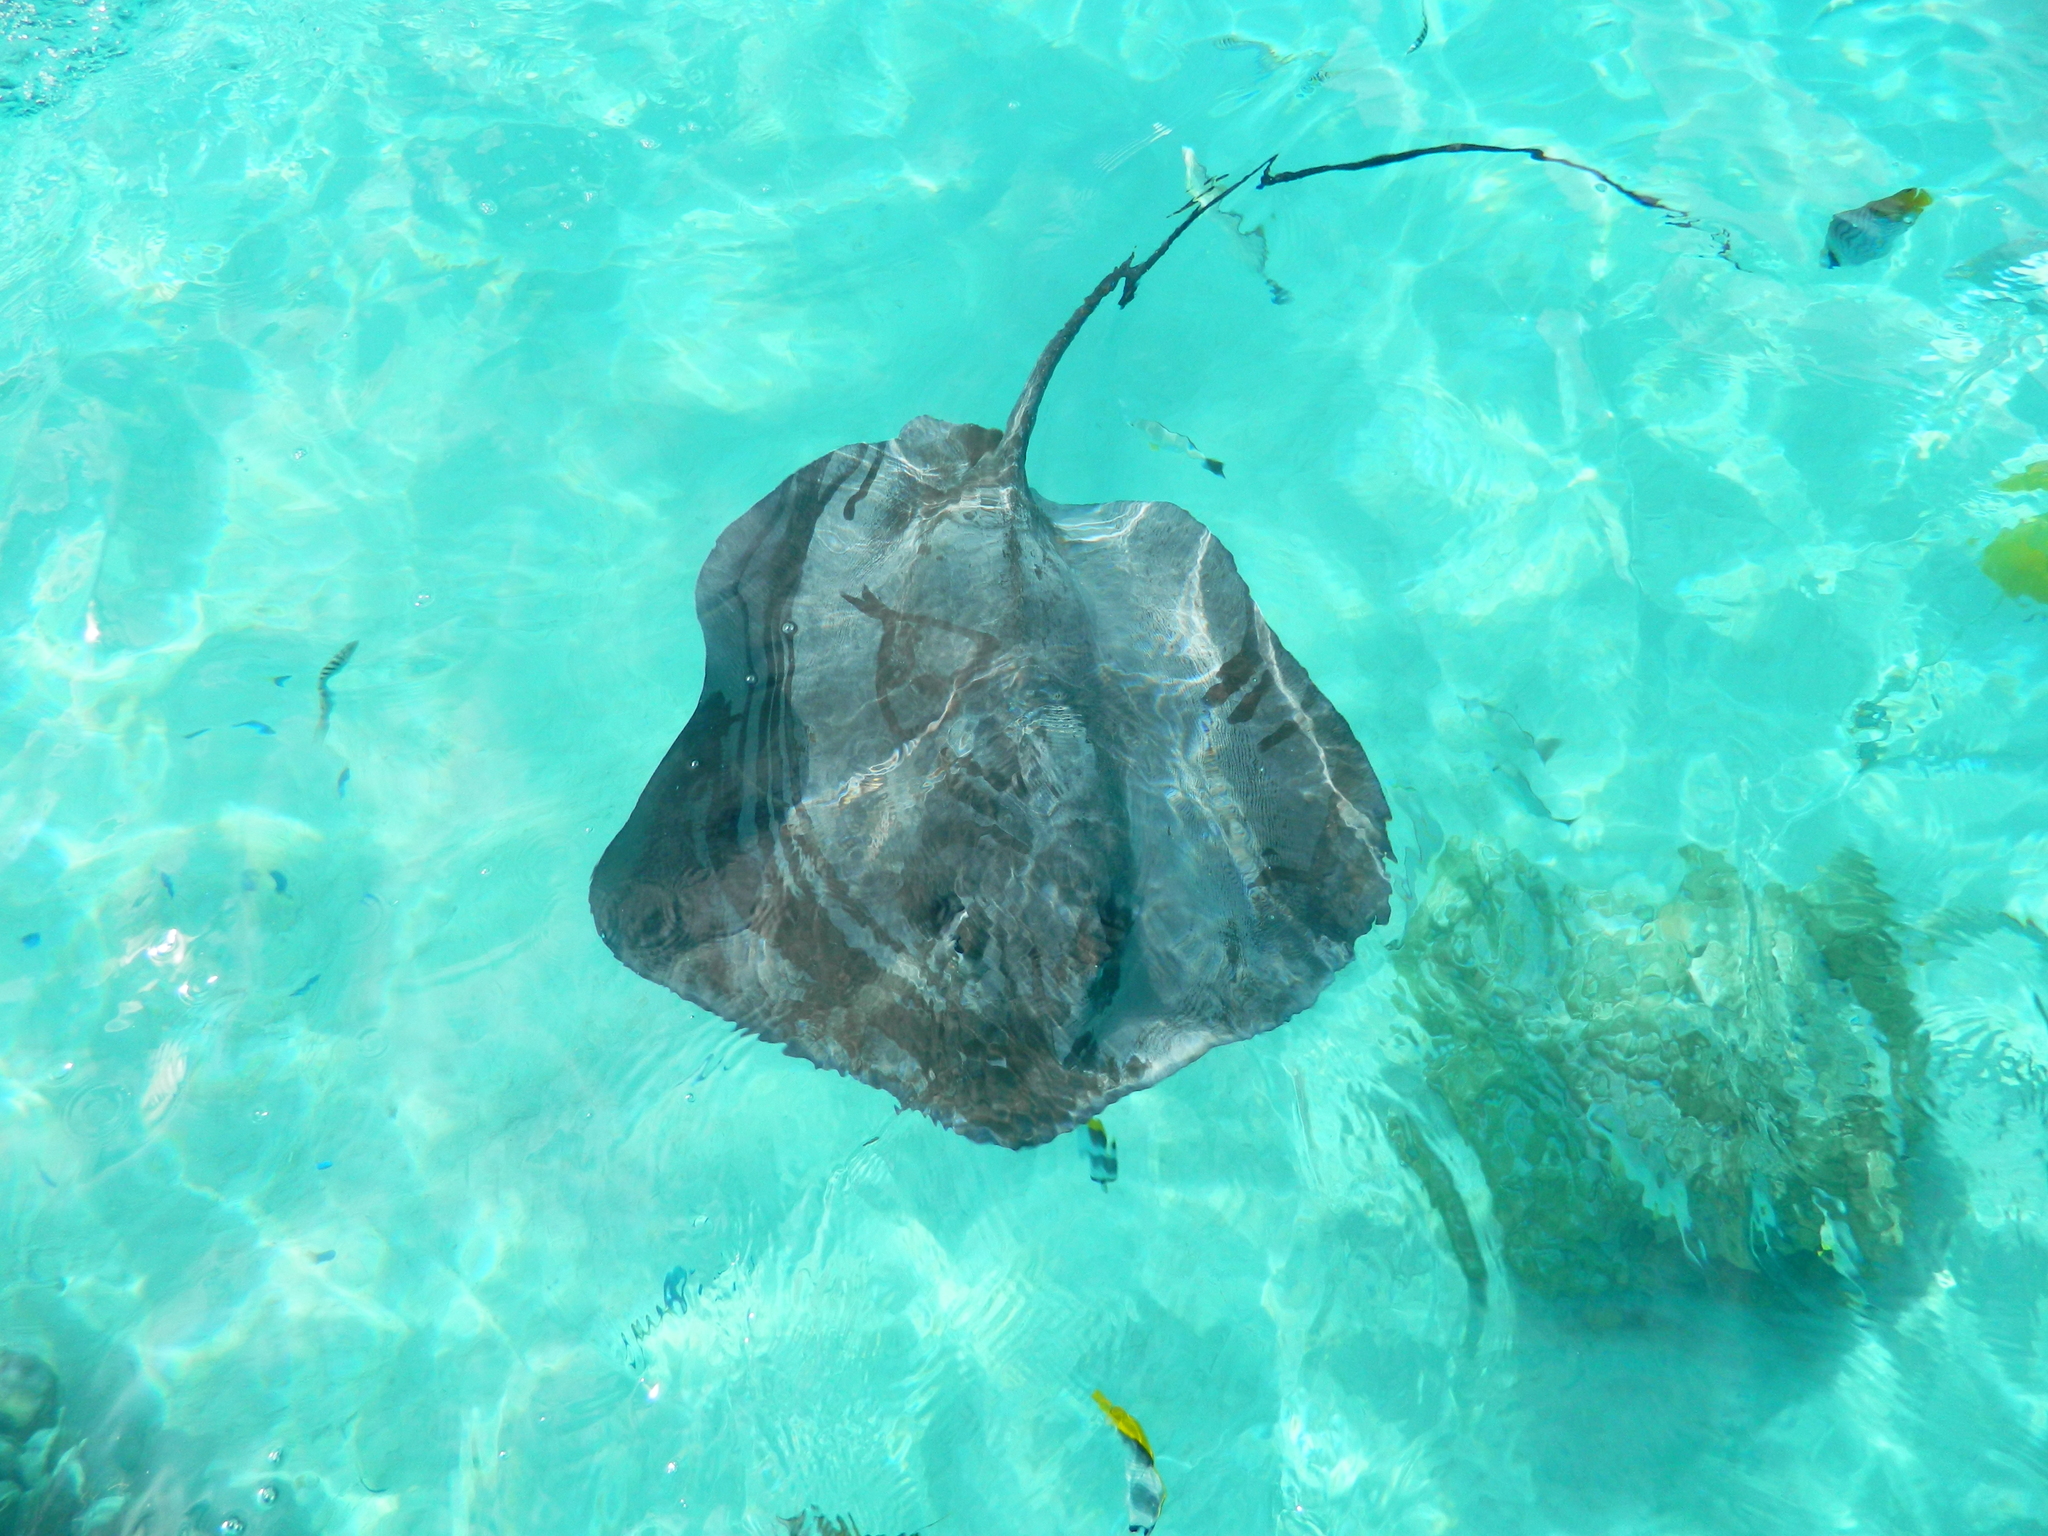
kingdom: Animalia
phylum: Chordata
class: Elasmobranchii
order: Myliobatiformes
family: Dasyatidae
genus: Pateobatis
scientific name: Pateobatis fai
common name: Pink whipray
